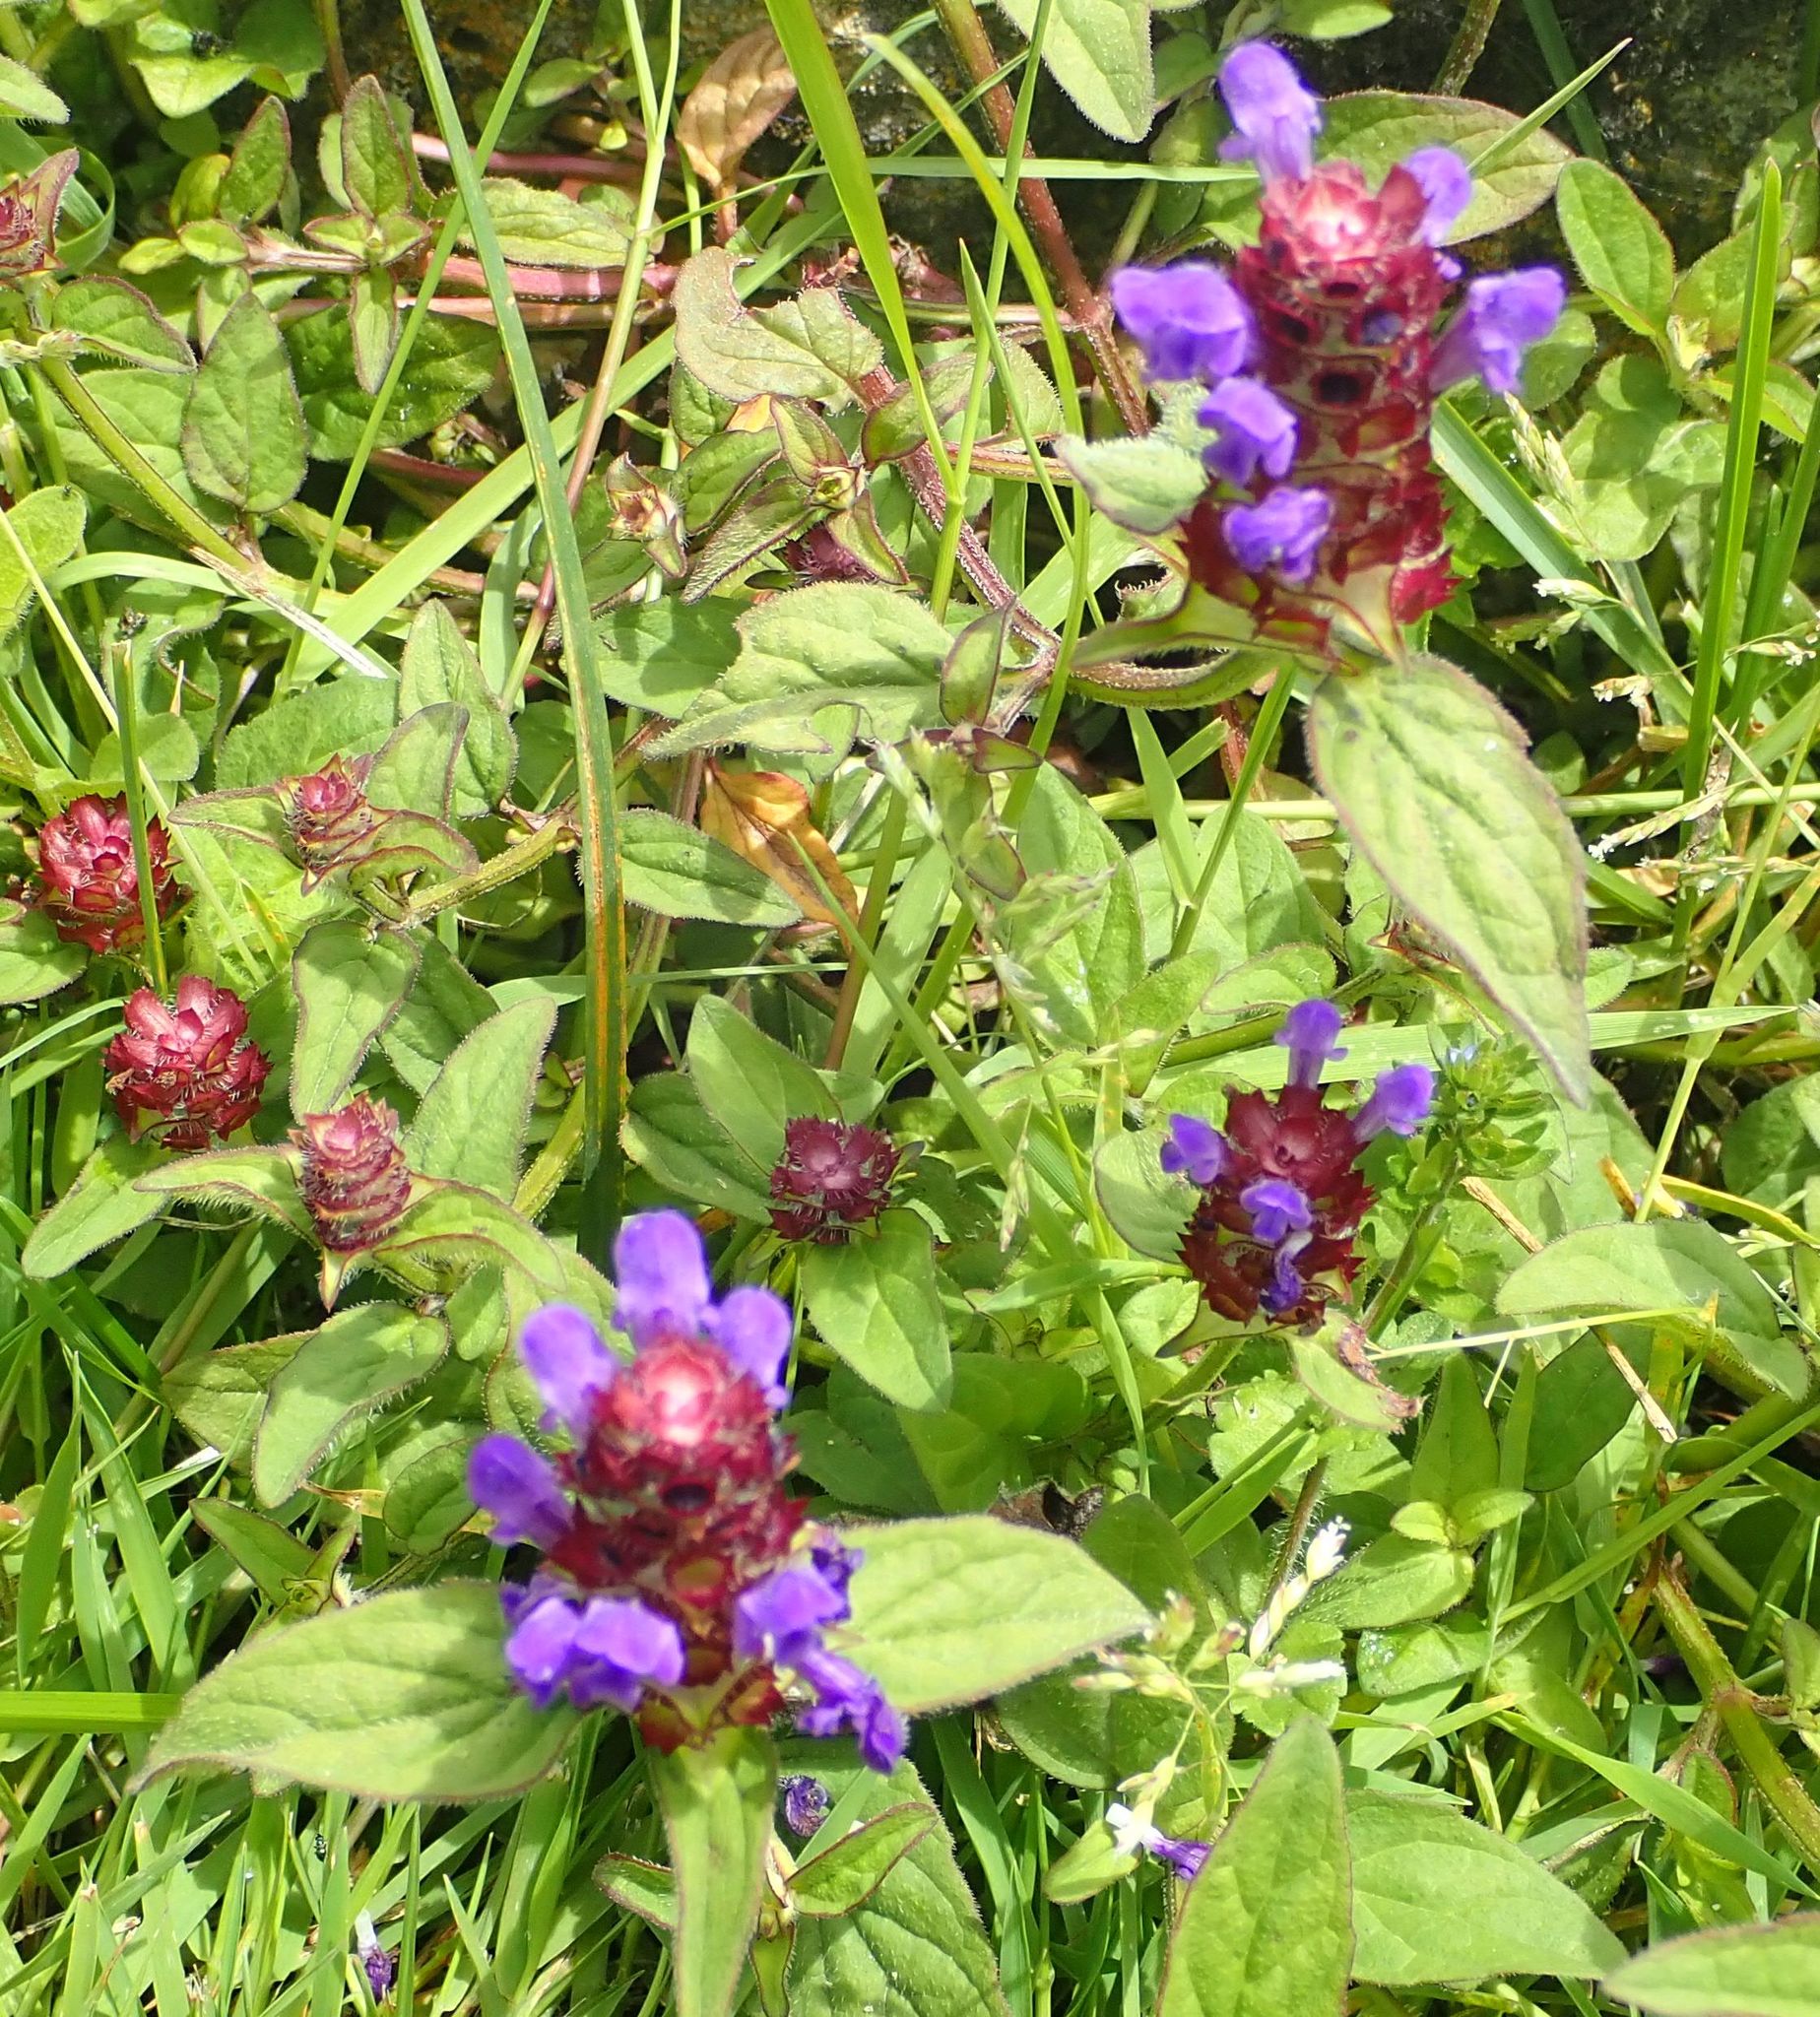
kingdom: Plantae
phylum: Tracheophyta
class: Magnoliopsida
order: Lamiales
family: Lamiaceae
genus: Prunella
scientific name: Prunella vulgaris
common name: Heal-all
